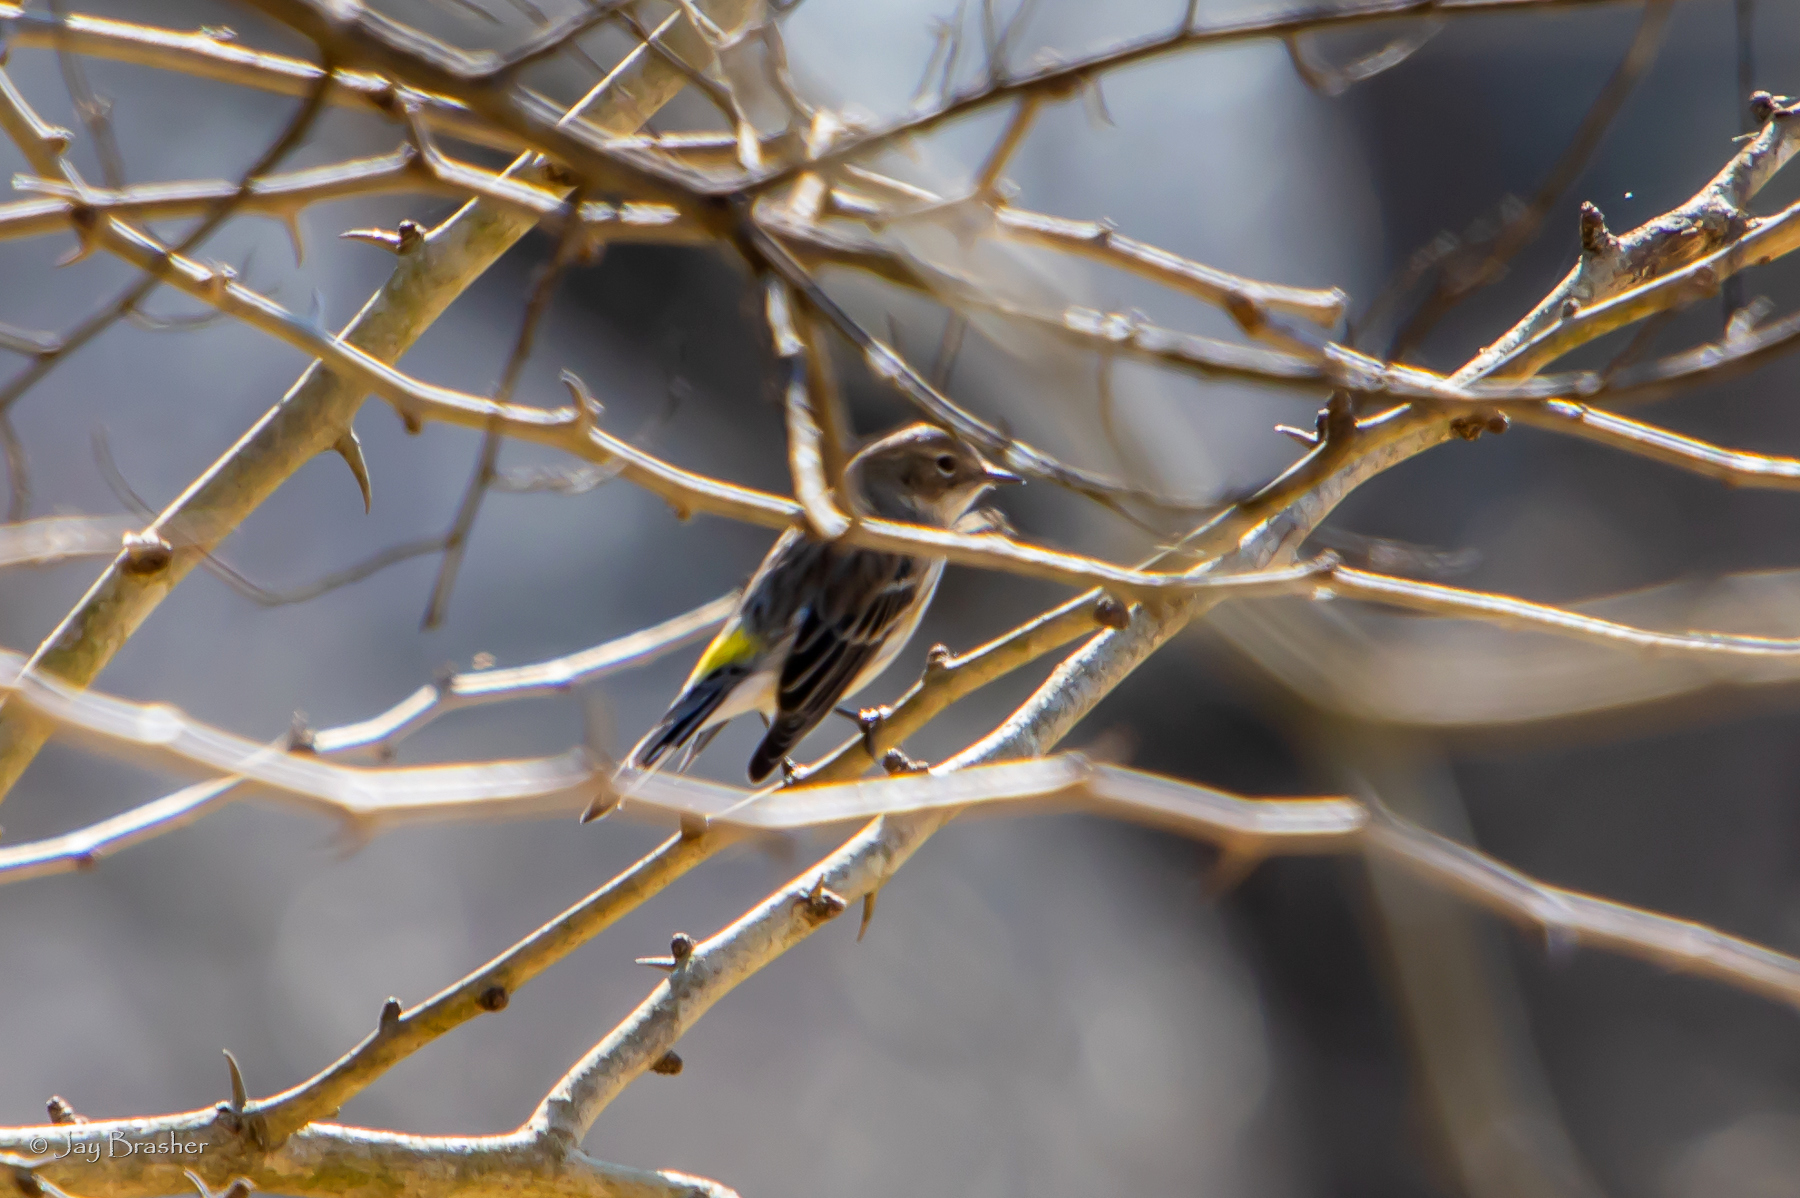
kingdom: Animalia
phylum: Chordata
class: Aves
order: Passeriformes
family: Parulidae
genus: Setophaga
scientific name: Setophaga coronata
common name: Myrtle warbler
